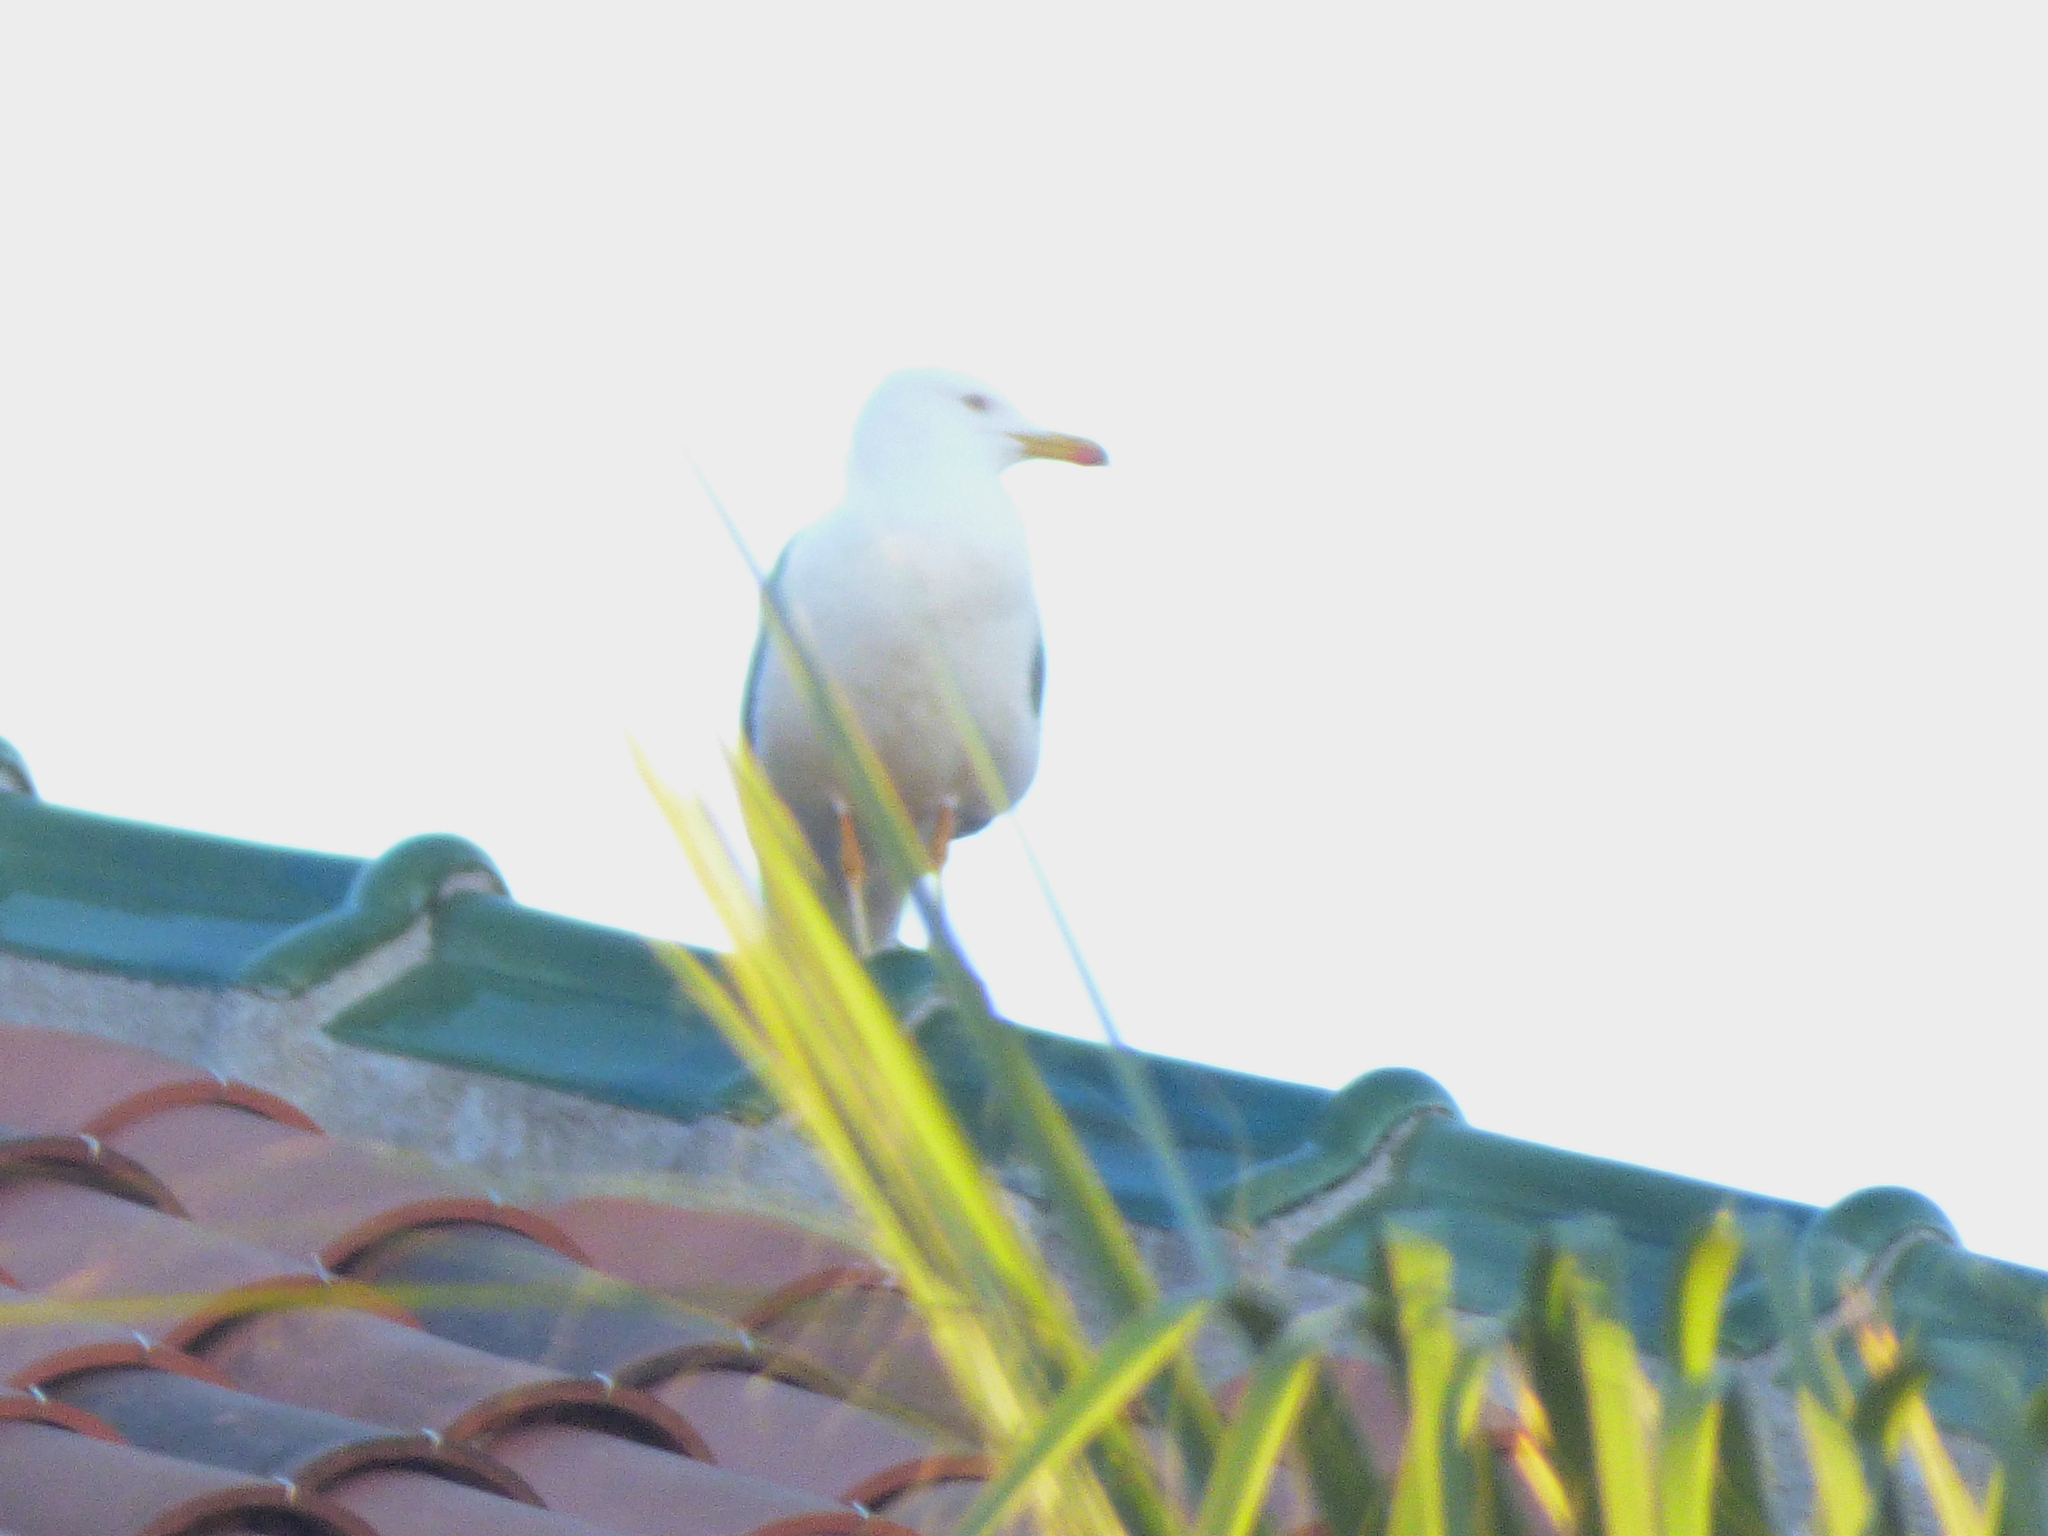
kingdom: Animalia
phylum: Chordata
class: Aves
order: Charadriiformes
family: Laridae
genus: Larus
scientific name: Larus michahellis
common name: Yellow-legged gull
